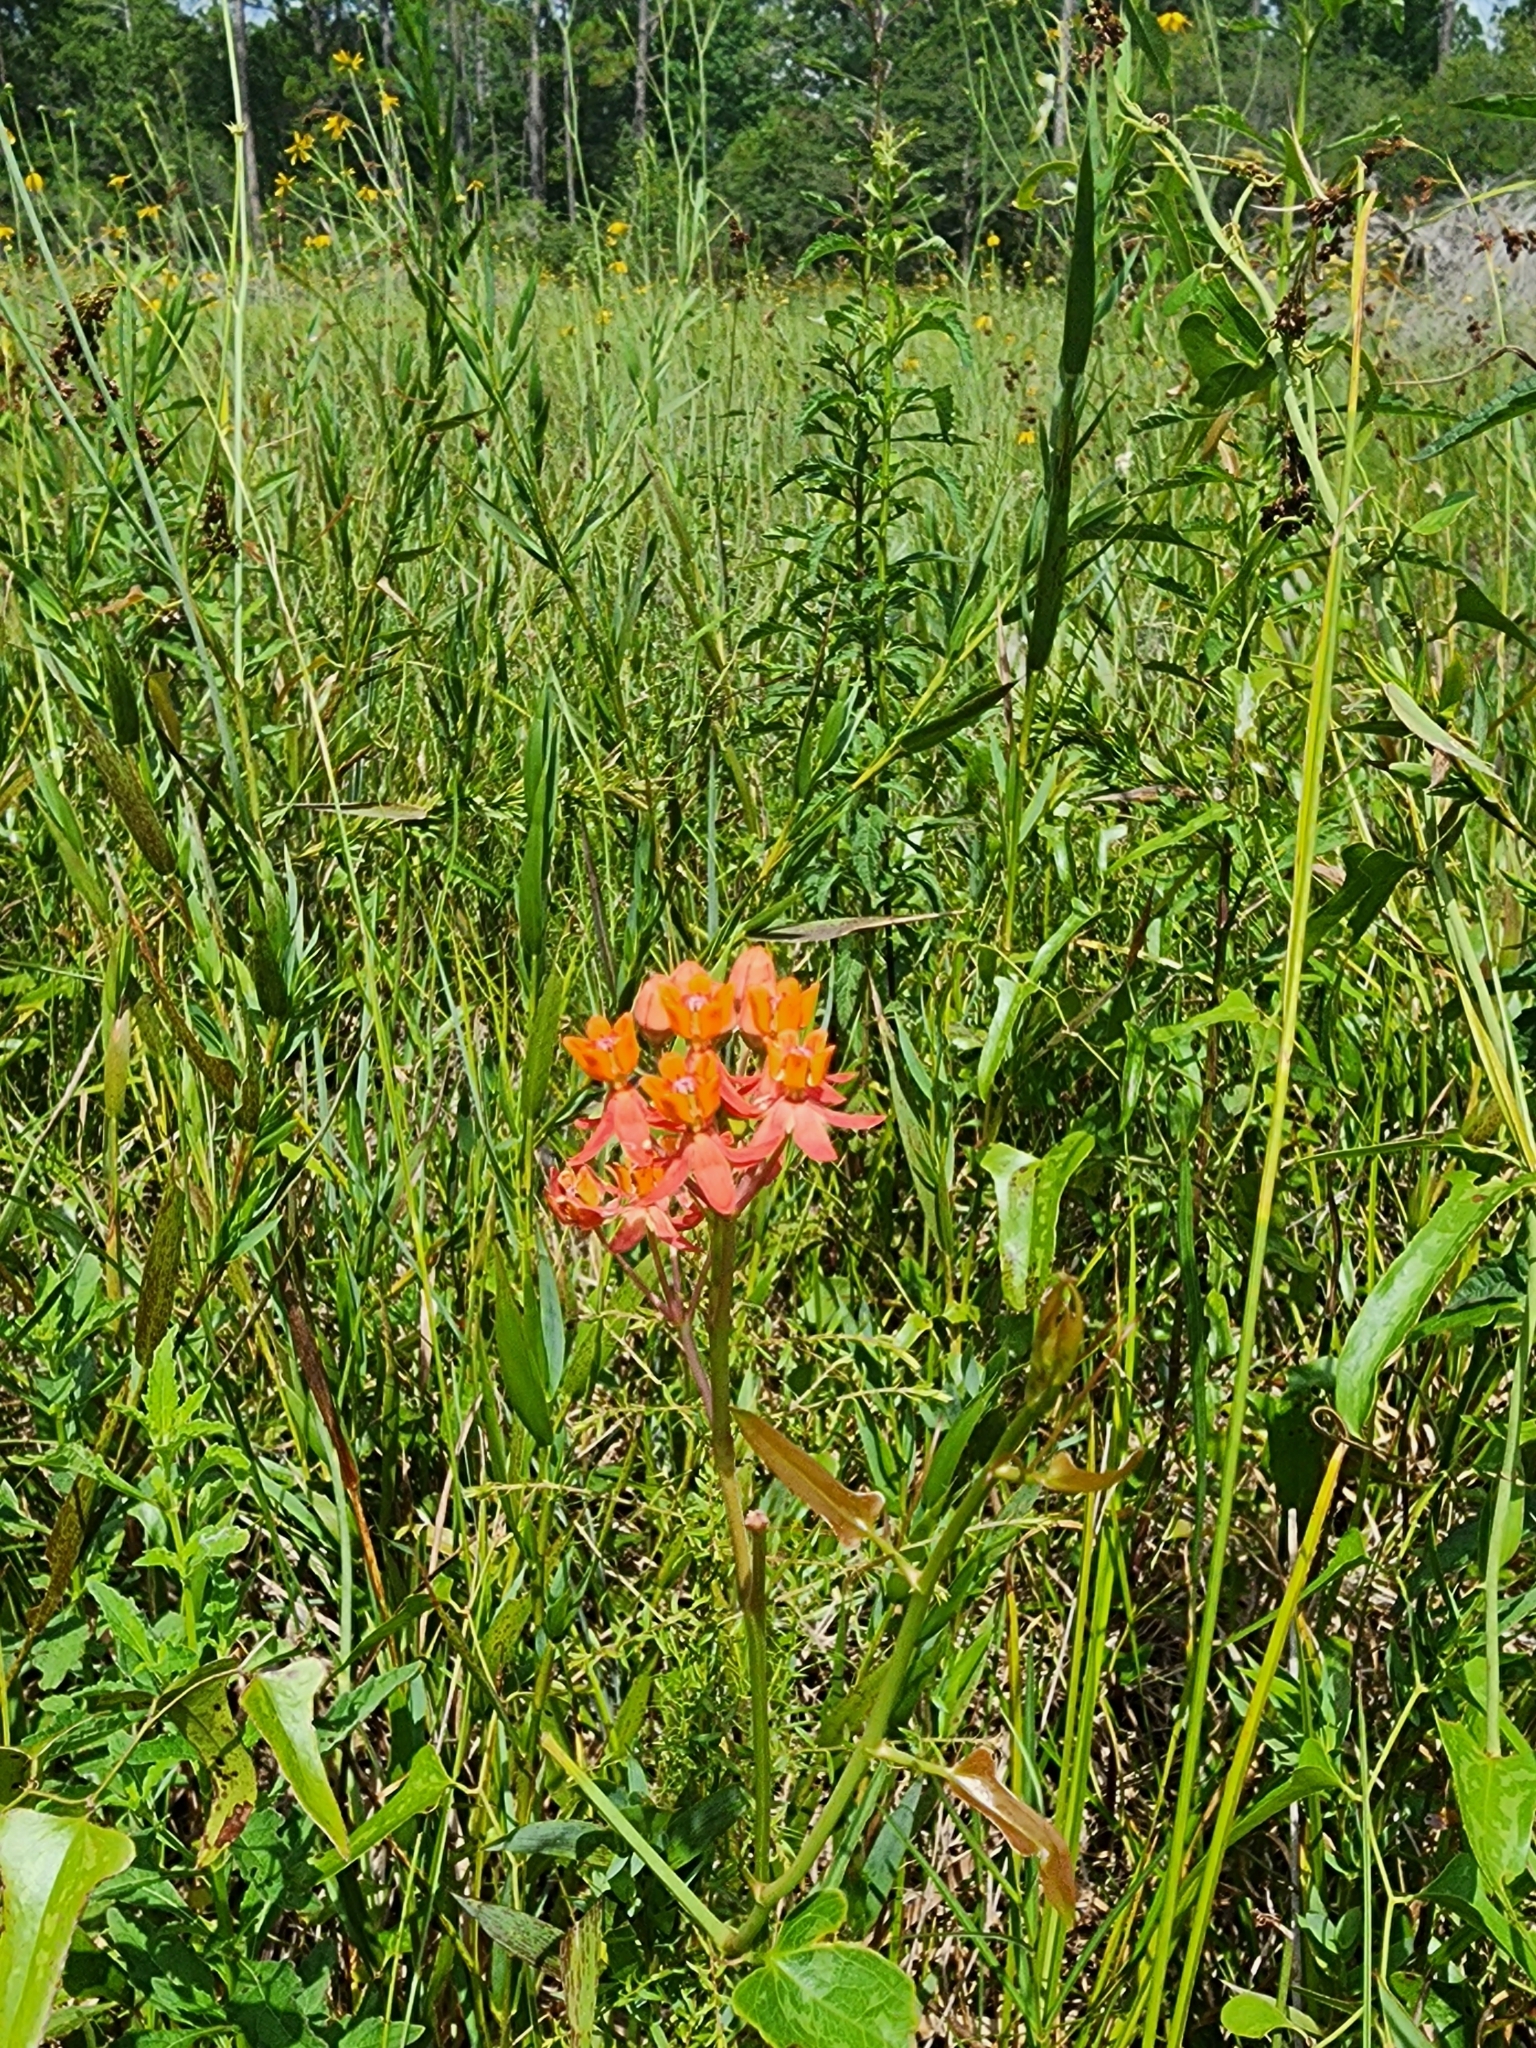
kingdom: Plantae
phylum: Tracheophyta
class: Magnoliopsida
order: Gentianales
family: Apocynaceae
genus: Asclepias
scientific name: Asclepias lanceolata
